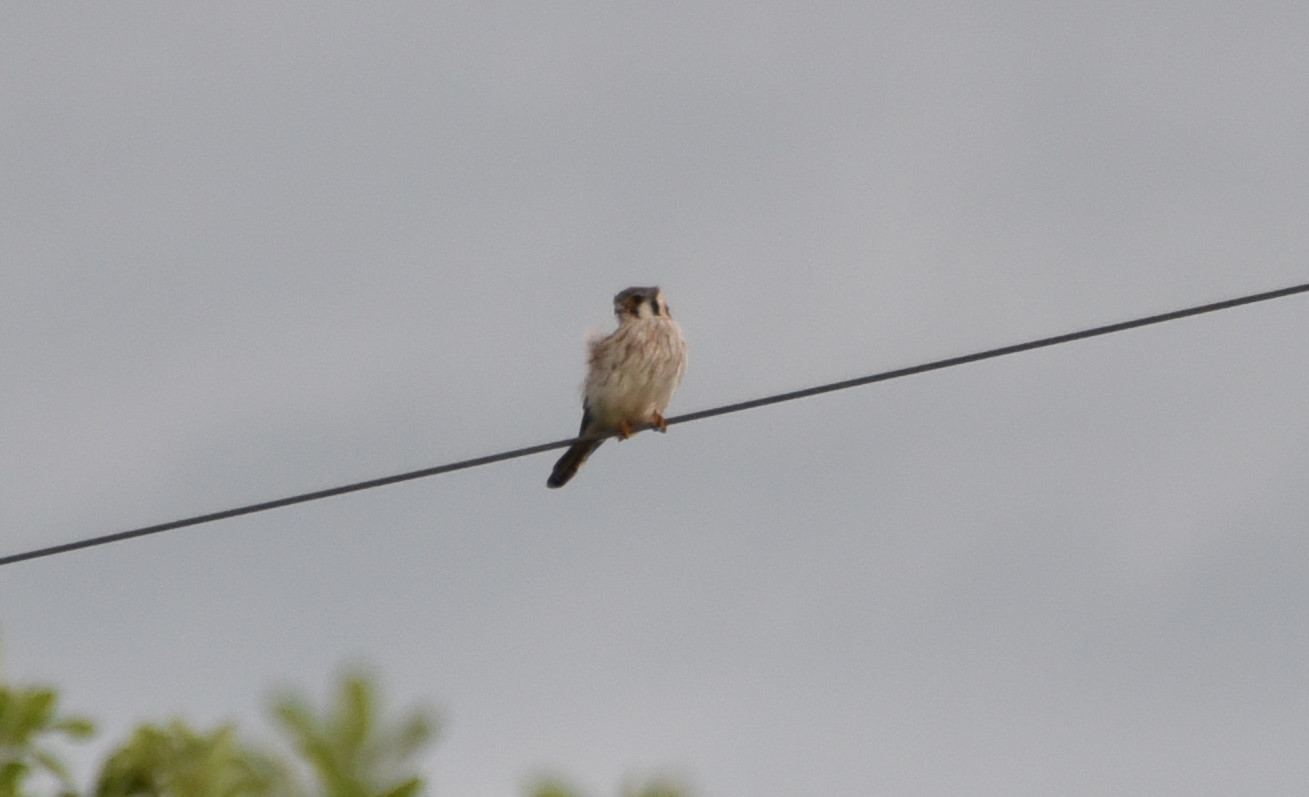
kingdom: Animalia
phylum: Chordata
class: Aves
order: Falconiformes
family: Falconidae
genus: Falco
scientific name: Falco sparverius
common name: American kestrel
